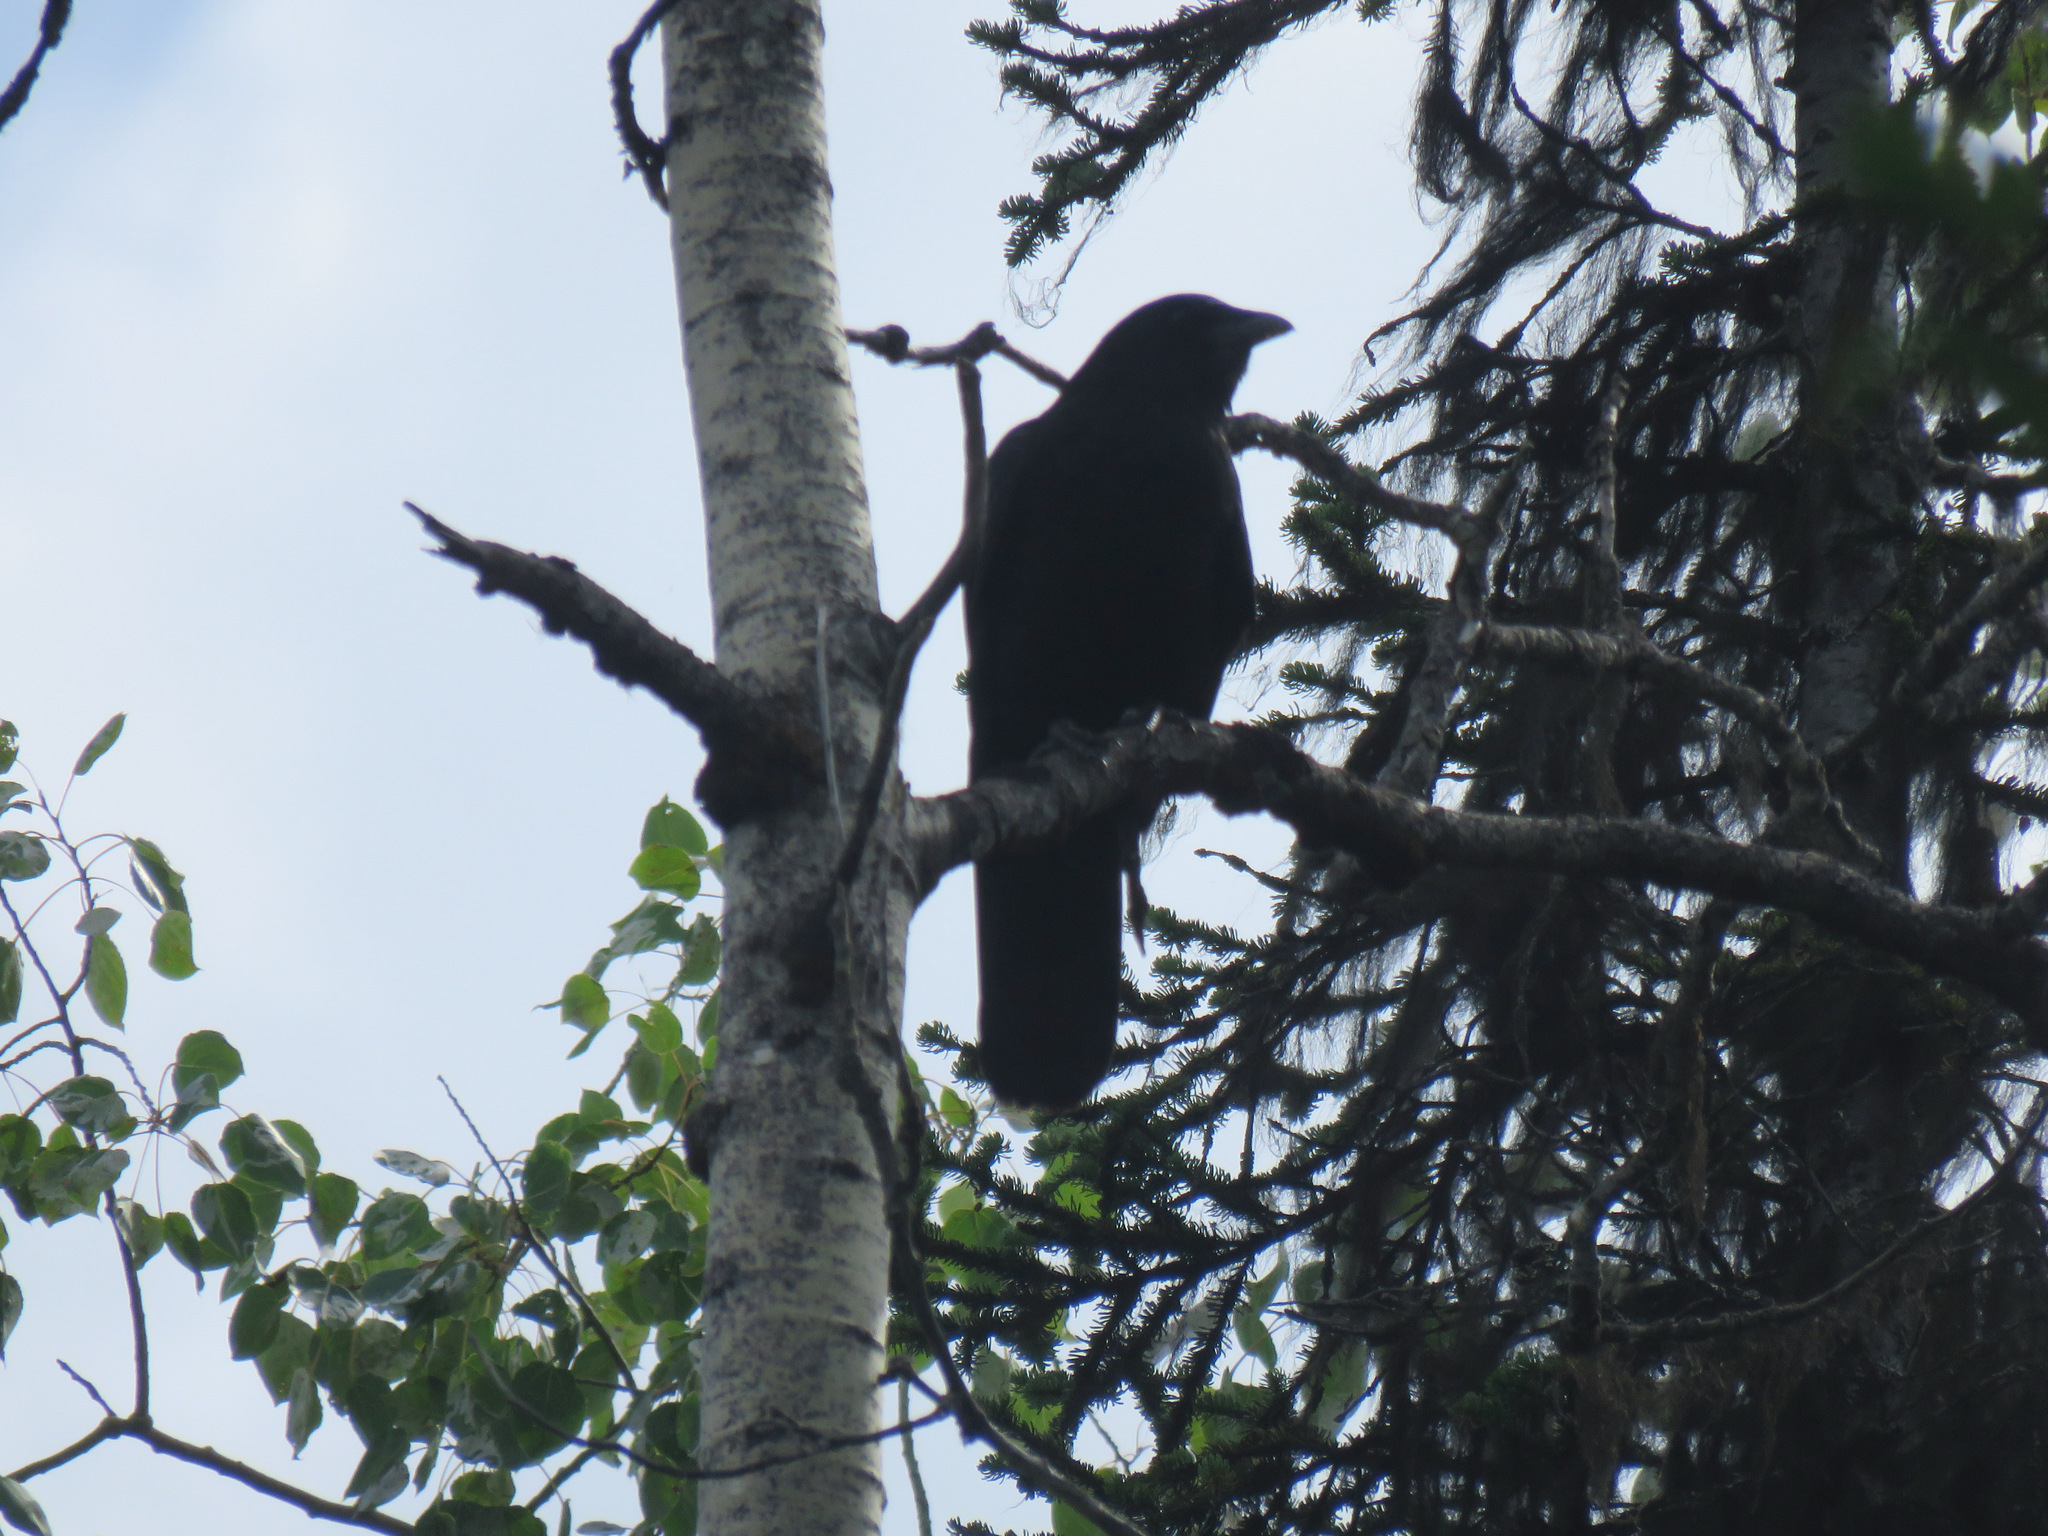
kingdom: Animalia
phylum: Chordata
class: Aves
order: Passeriformes
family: Corvidae
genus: Corvus
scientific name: Corvus brachyrhynchos
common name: American crow
